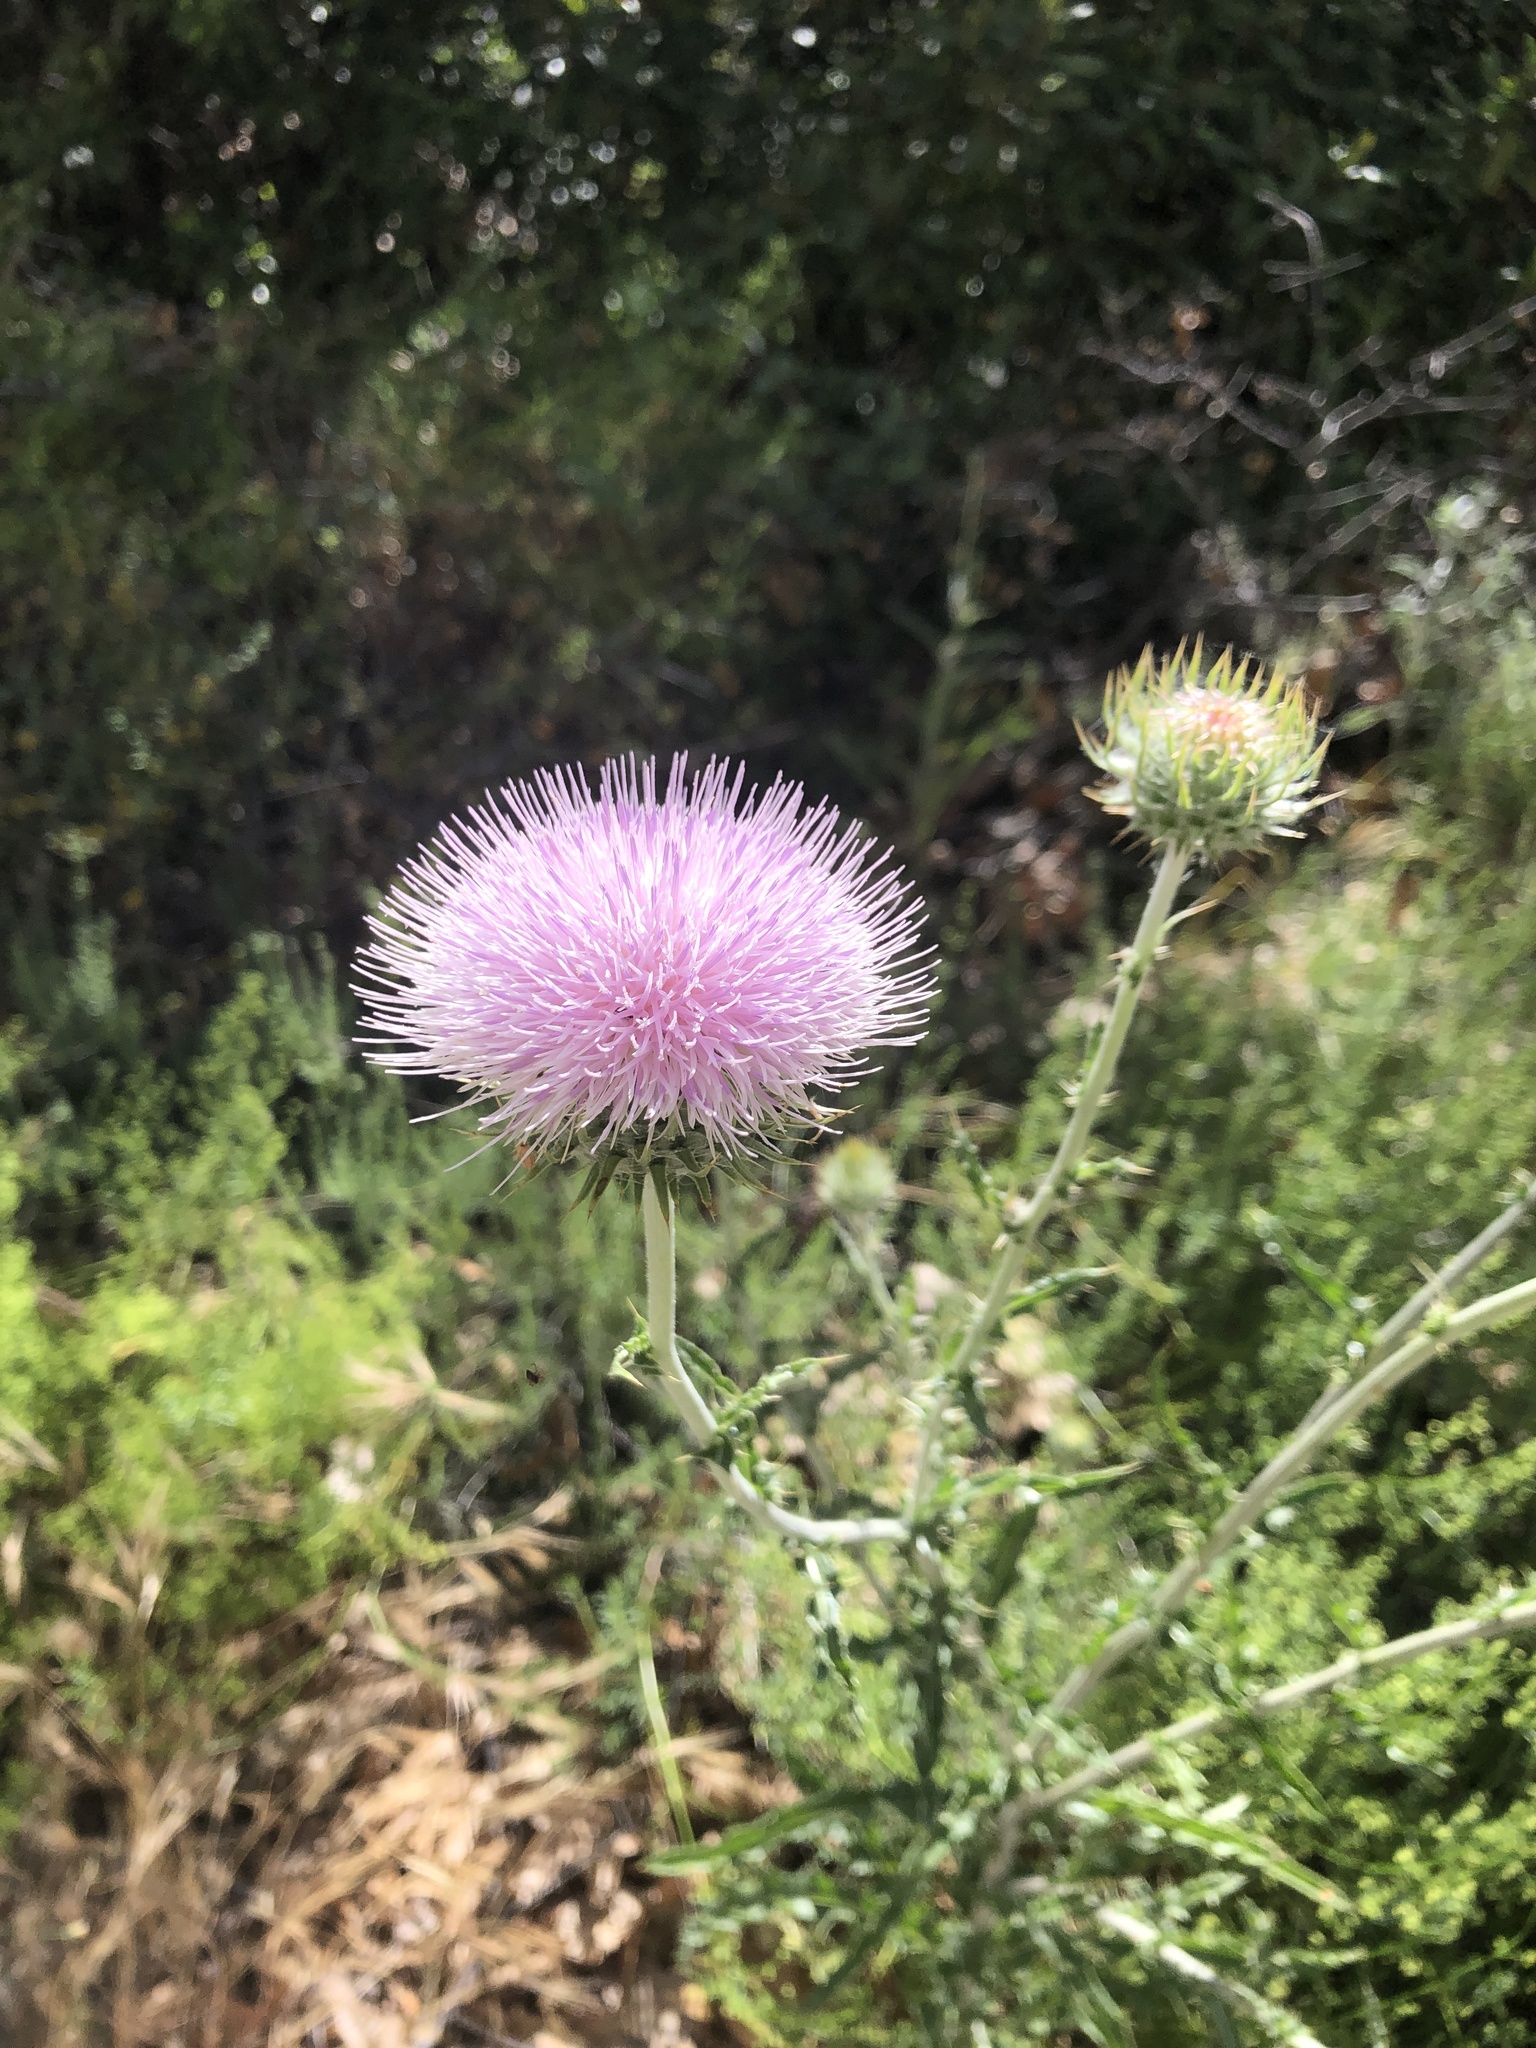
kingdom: Plantae
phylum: Tracheophyta
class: Magnoliopsida
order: Asterales
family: Asteraceae
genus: Cirsium
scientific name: Cirsium occidentale
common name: Western thistle
